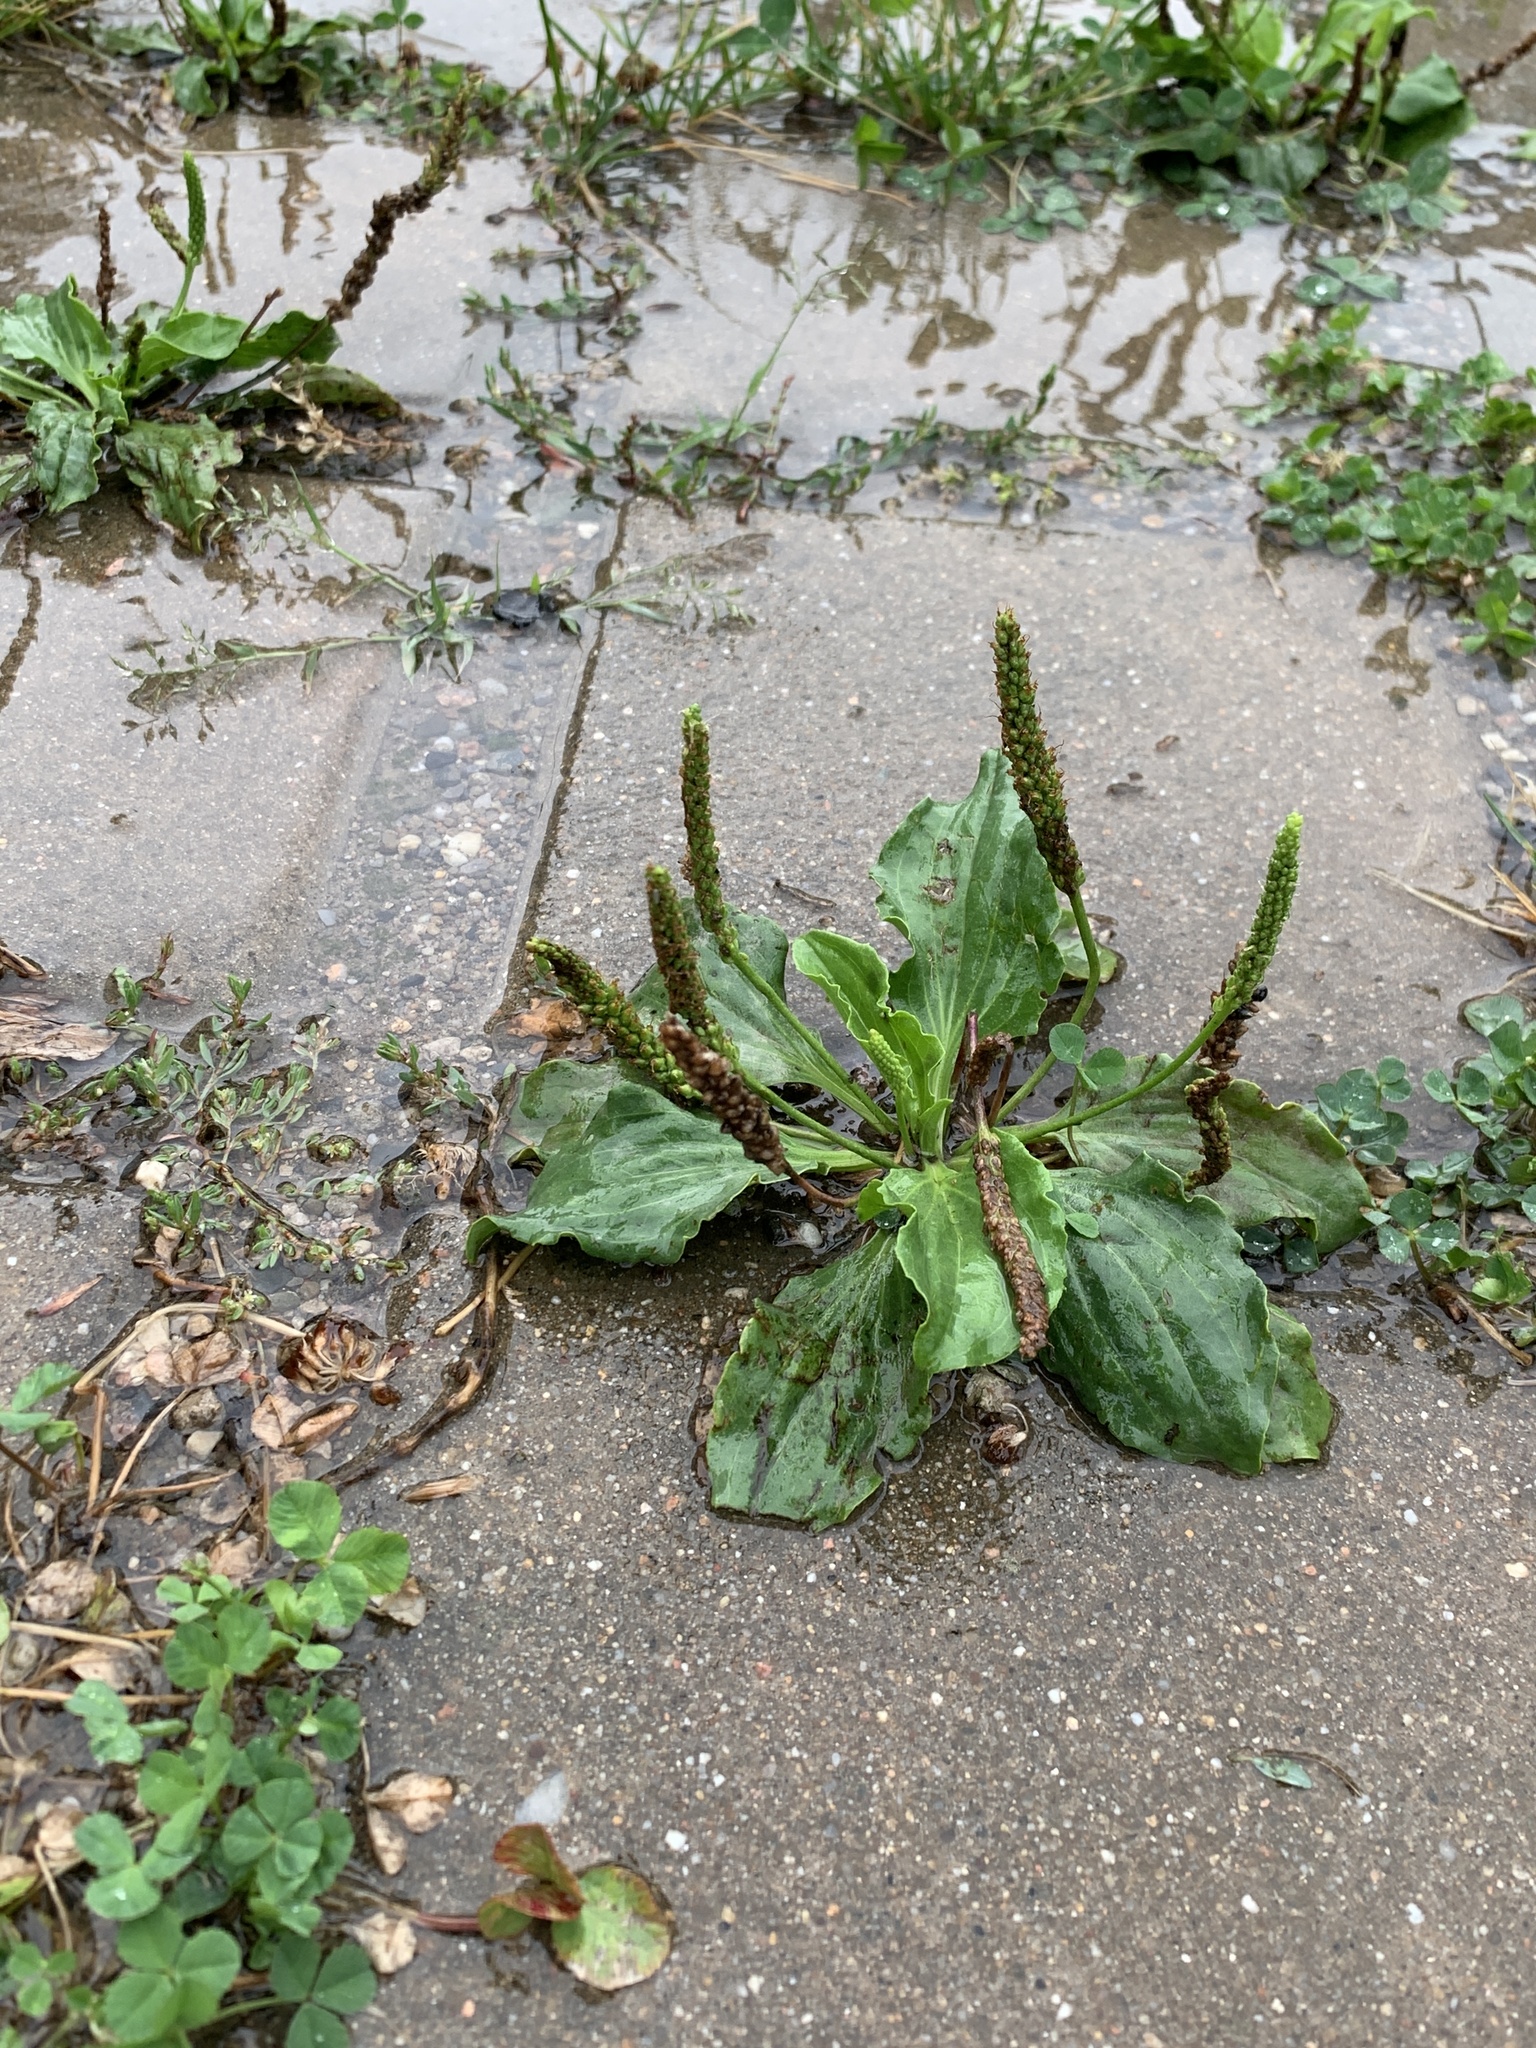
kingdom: Plantae
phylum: Tracheophyta
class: Magnoliopsida
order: Lamiales
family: Plantaginaceae
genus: Plantago
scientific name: Plantago major
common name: Common plantain
